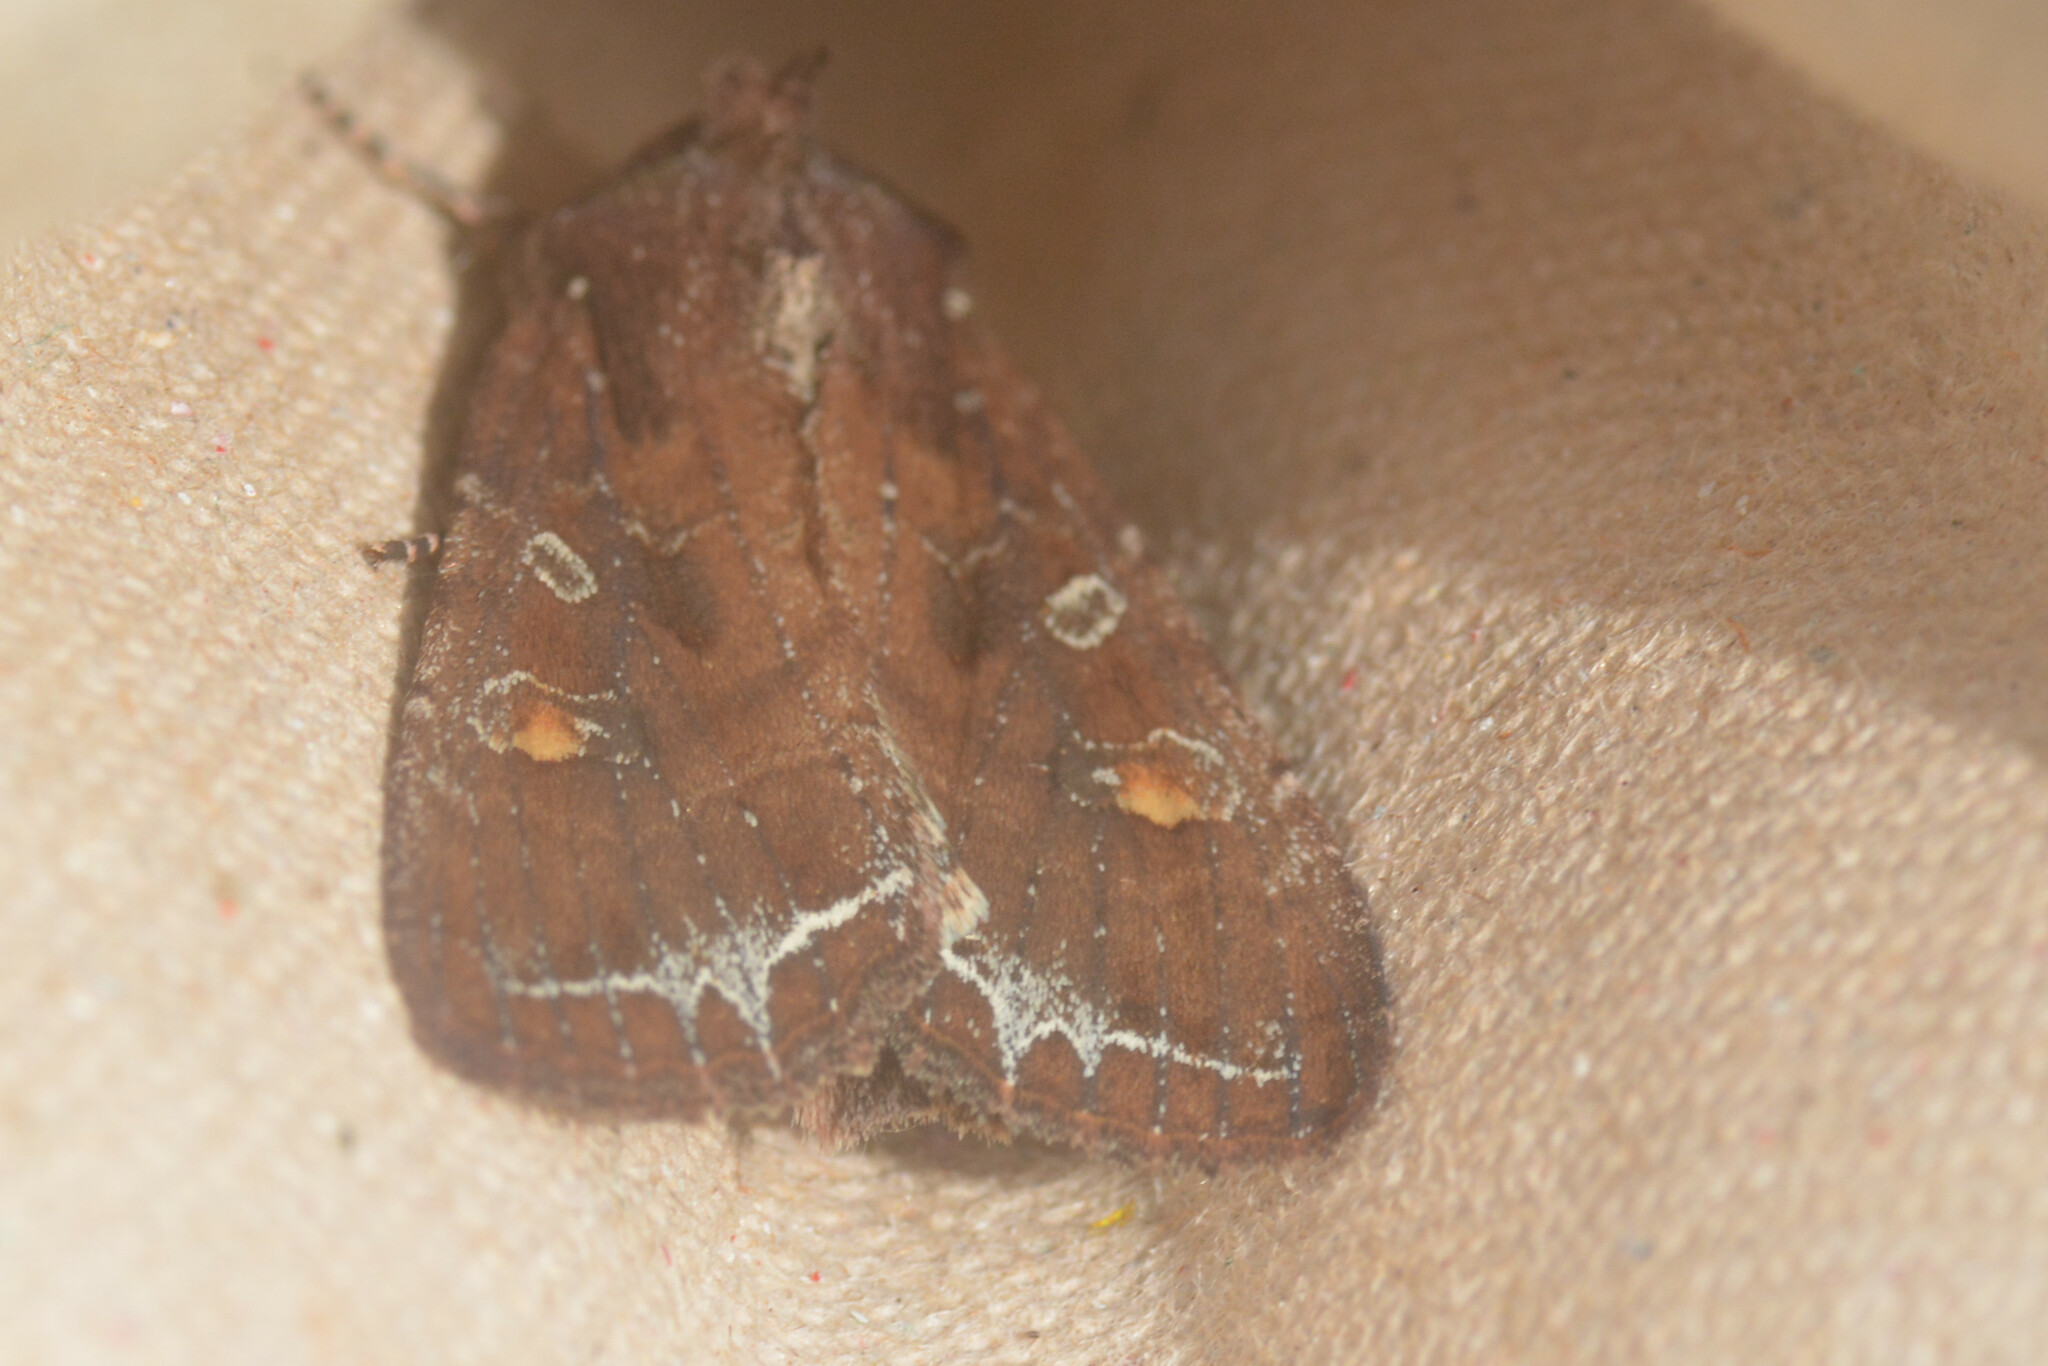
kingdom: Animalia
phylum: Arthropoda
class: Insecta
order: Lepidoptera
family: Noctuidae
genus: Lacanobia
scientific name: Lacanobia oleracea
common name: Bright-line brown-eye
